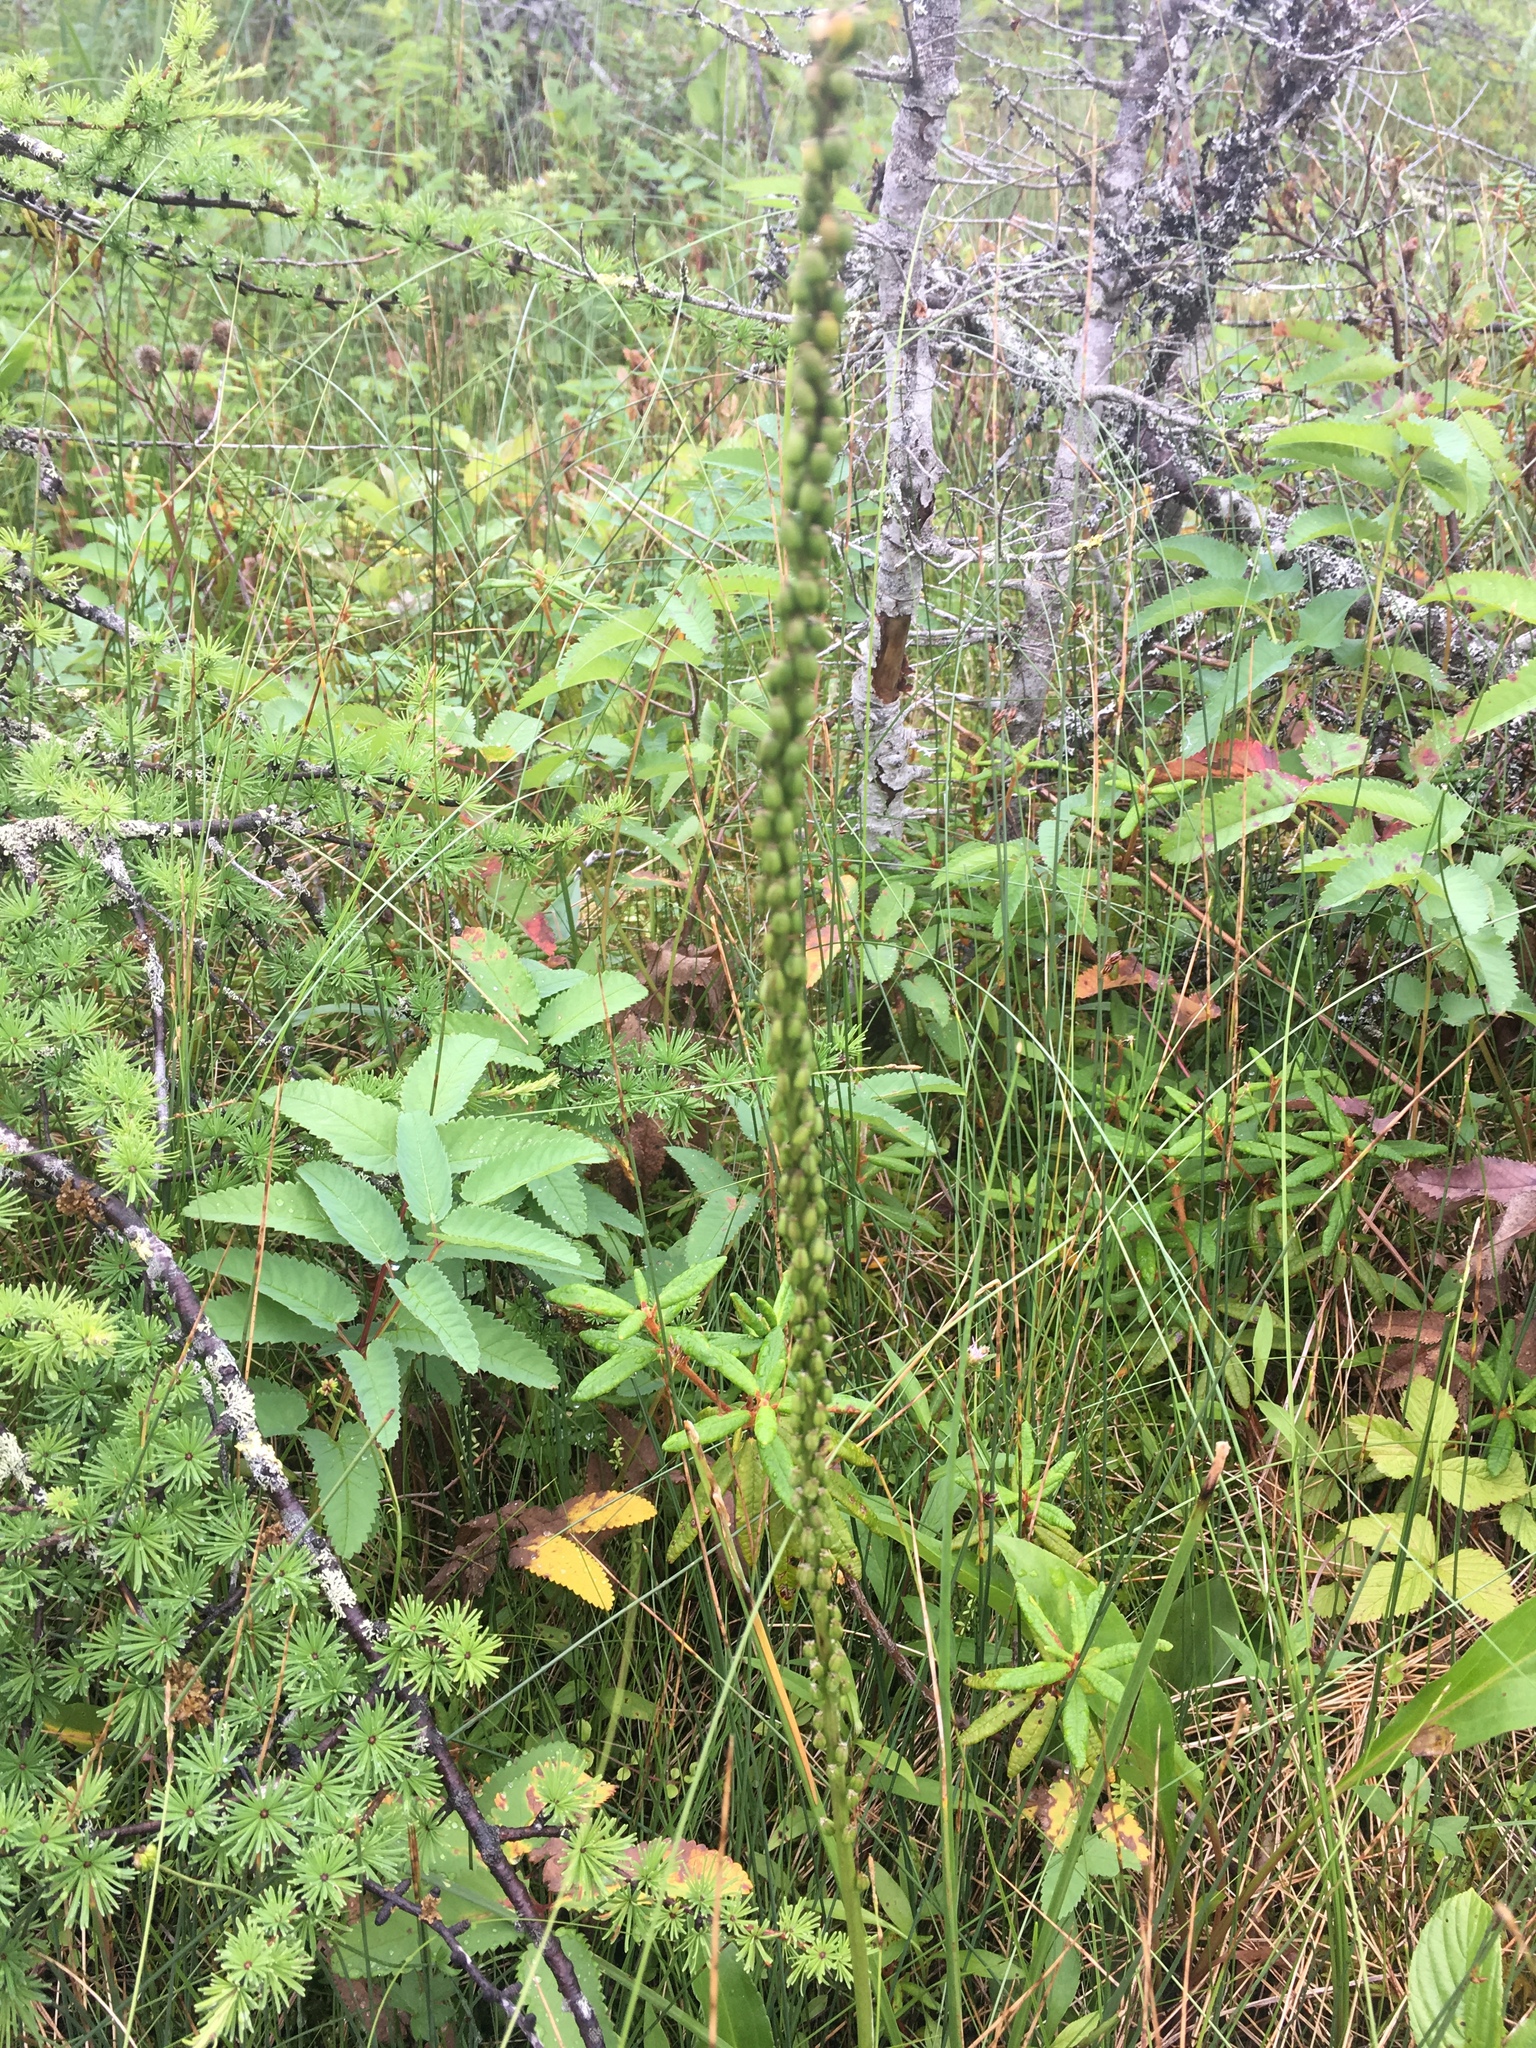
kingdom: Plantae
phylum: Tracheophyta
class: Liliopsida
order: Alismatales
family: Juncaginaceae
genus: Triglochin
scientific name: Triglochin maritima
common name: Sea arrowgrass
